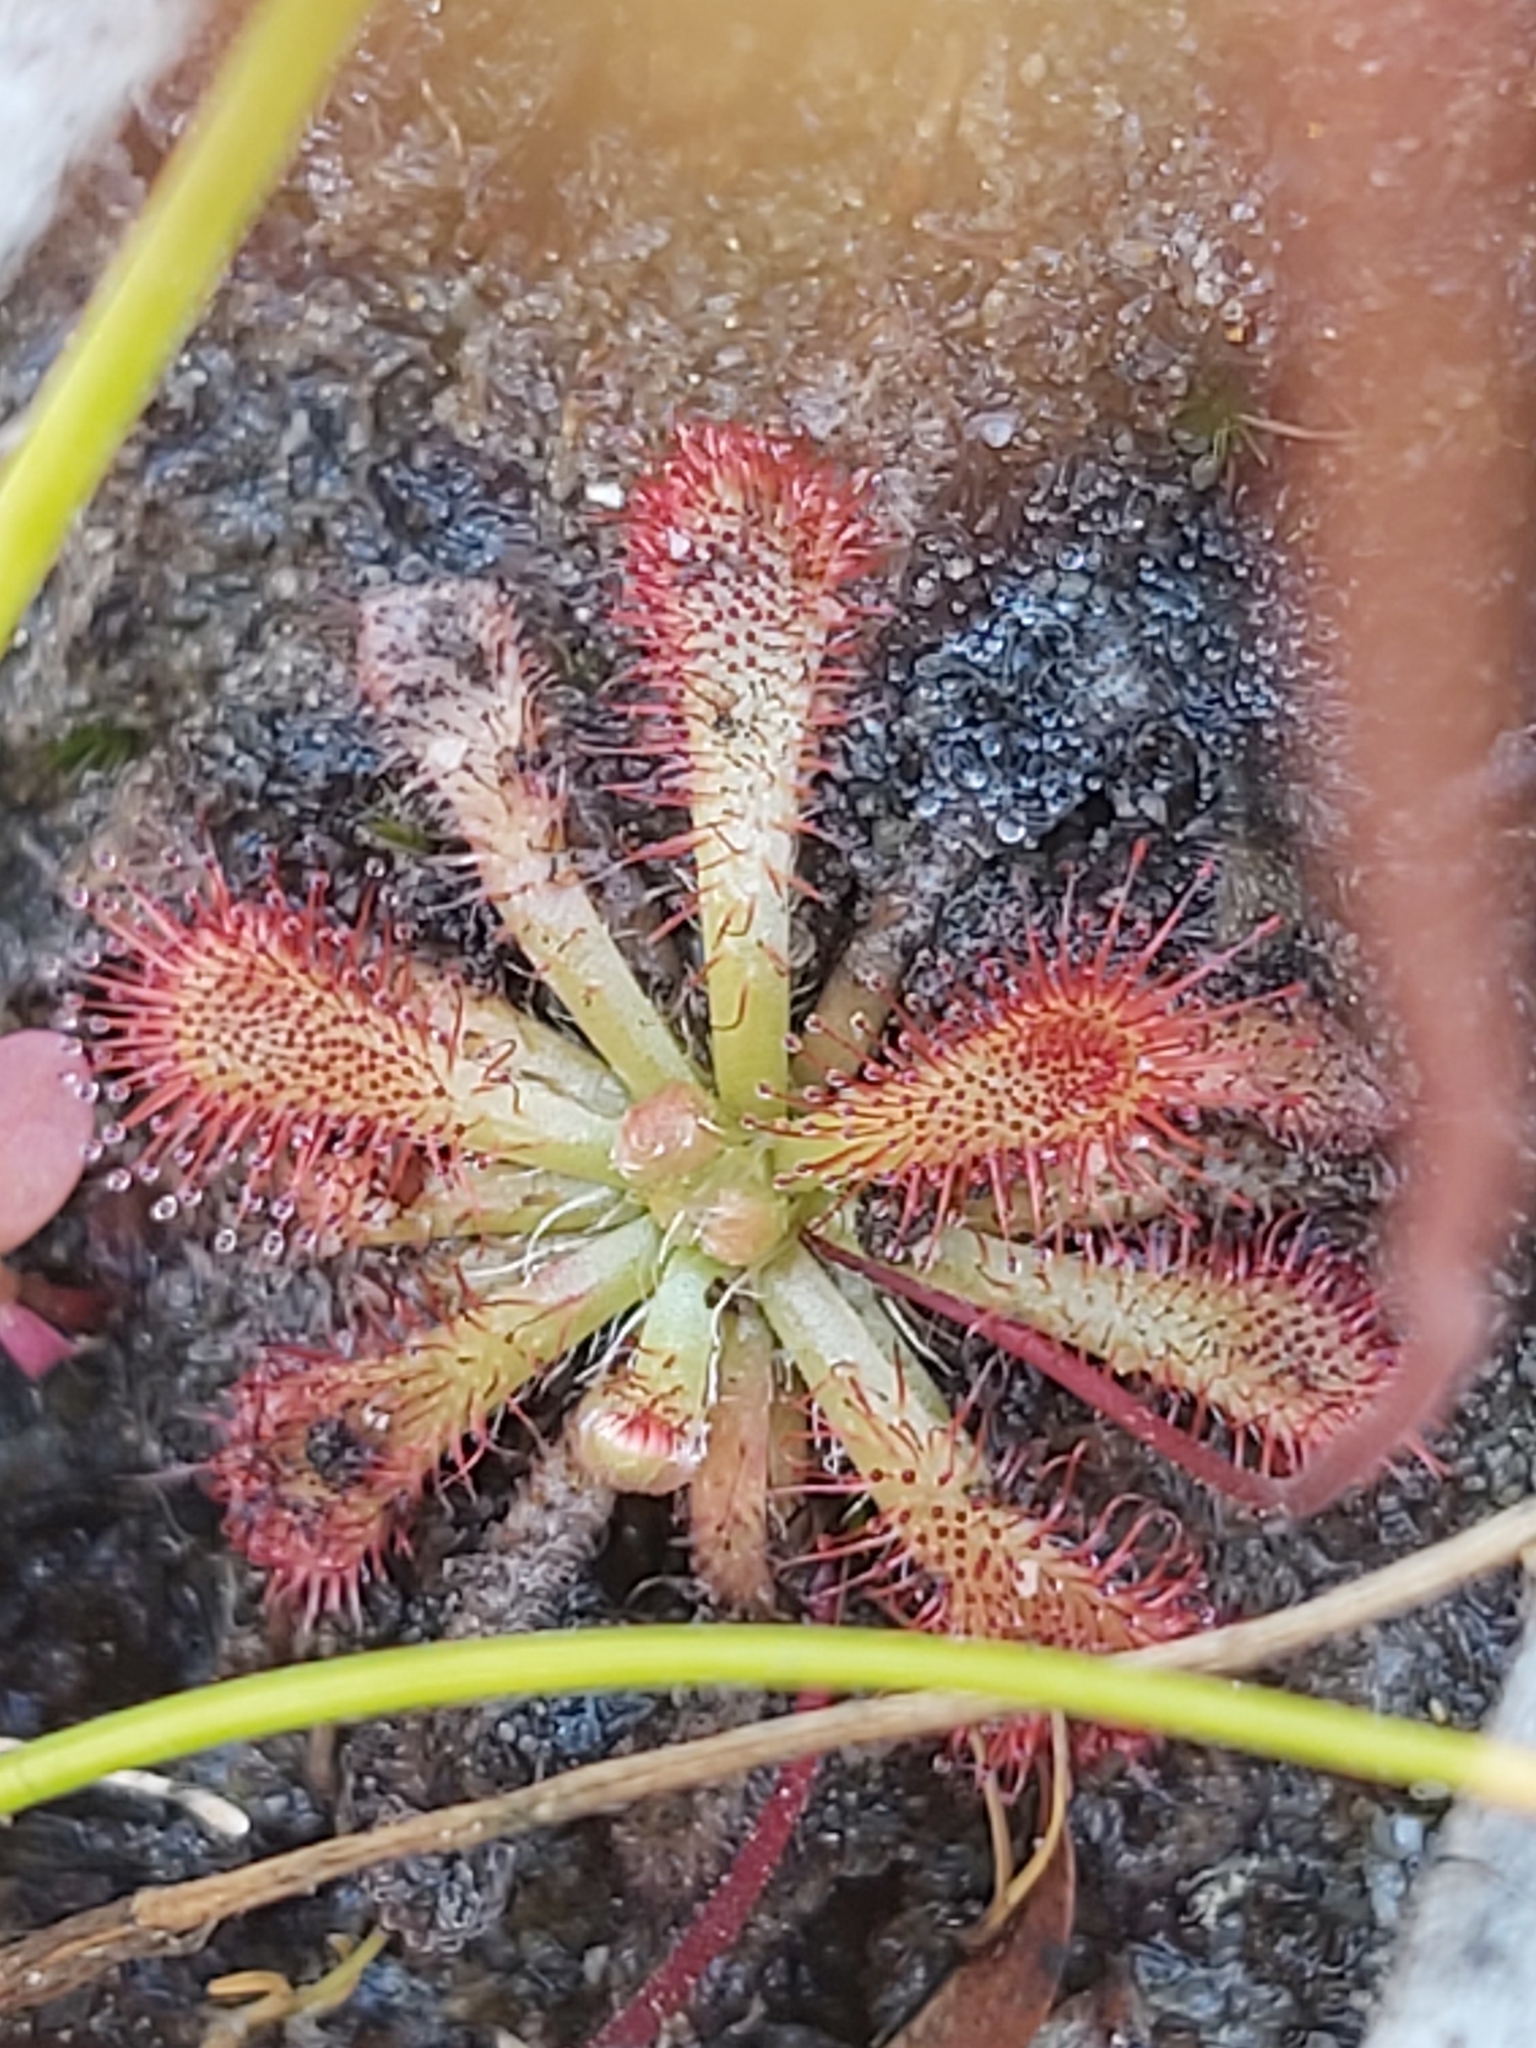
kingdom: Plantae
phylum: Tracheophyta
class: Magnoliopsida
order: Caryophyllales
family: Droseraceae
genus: Drosera
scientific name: Drosera spatulata
